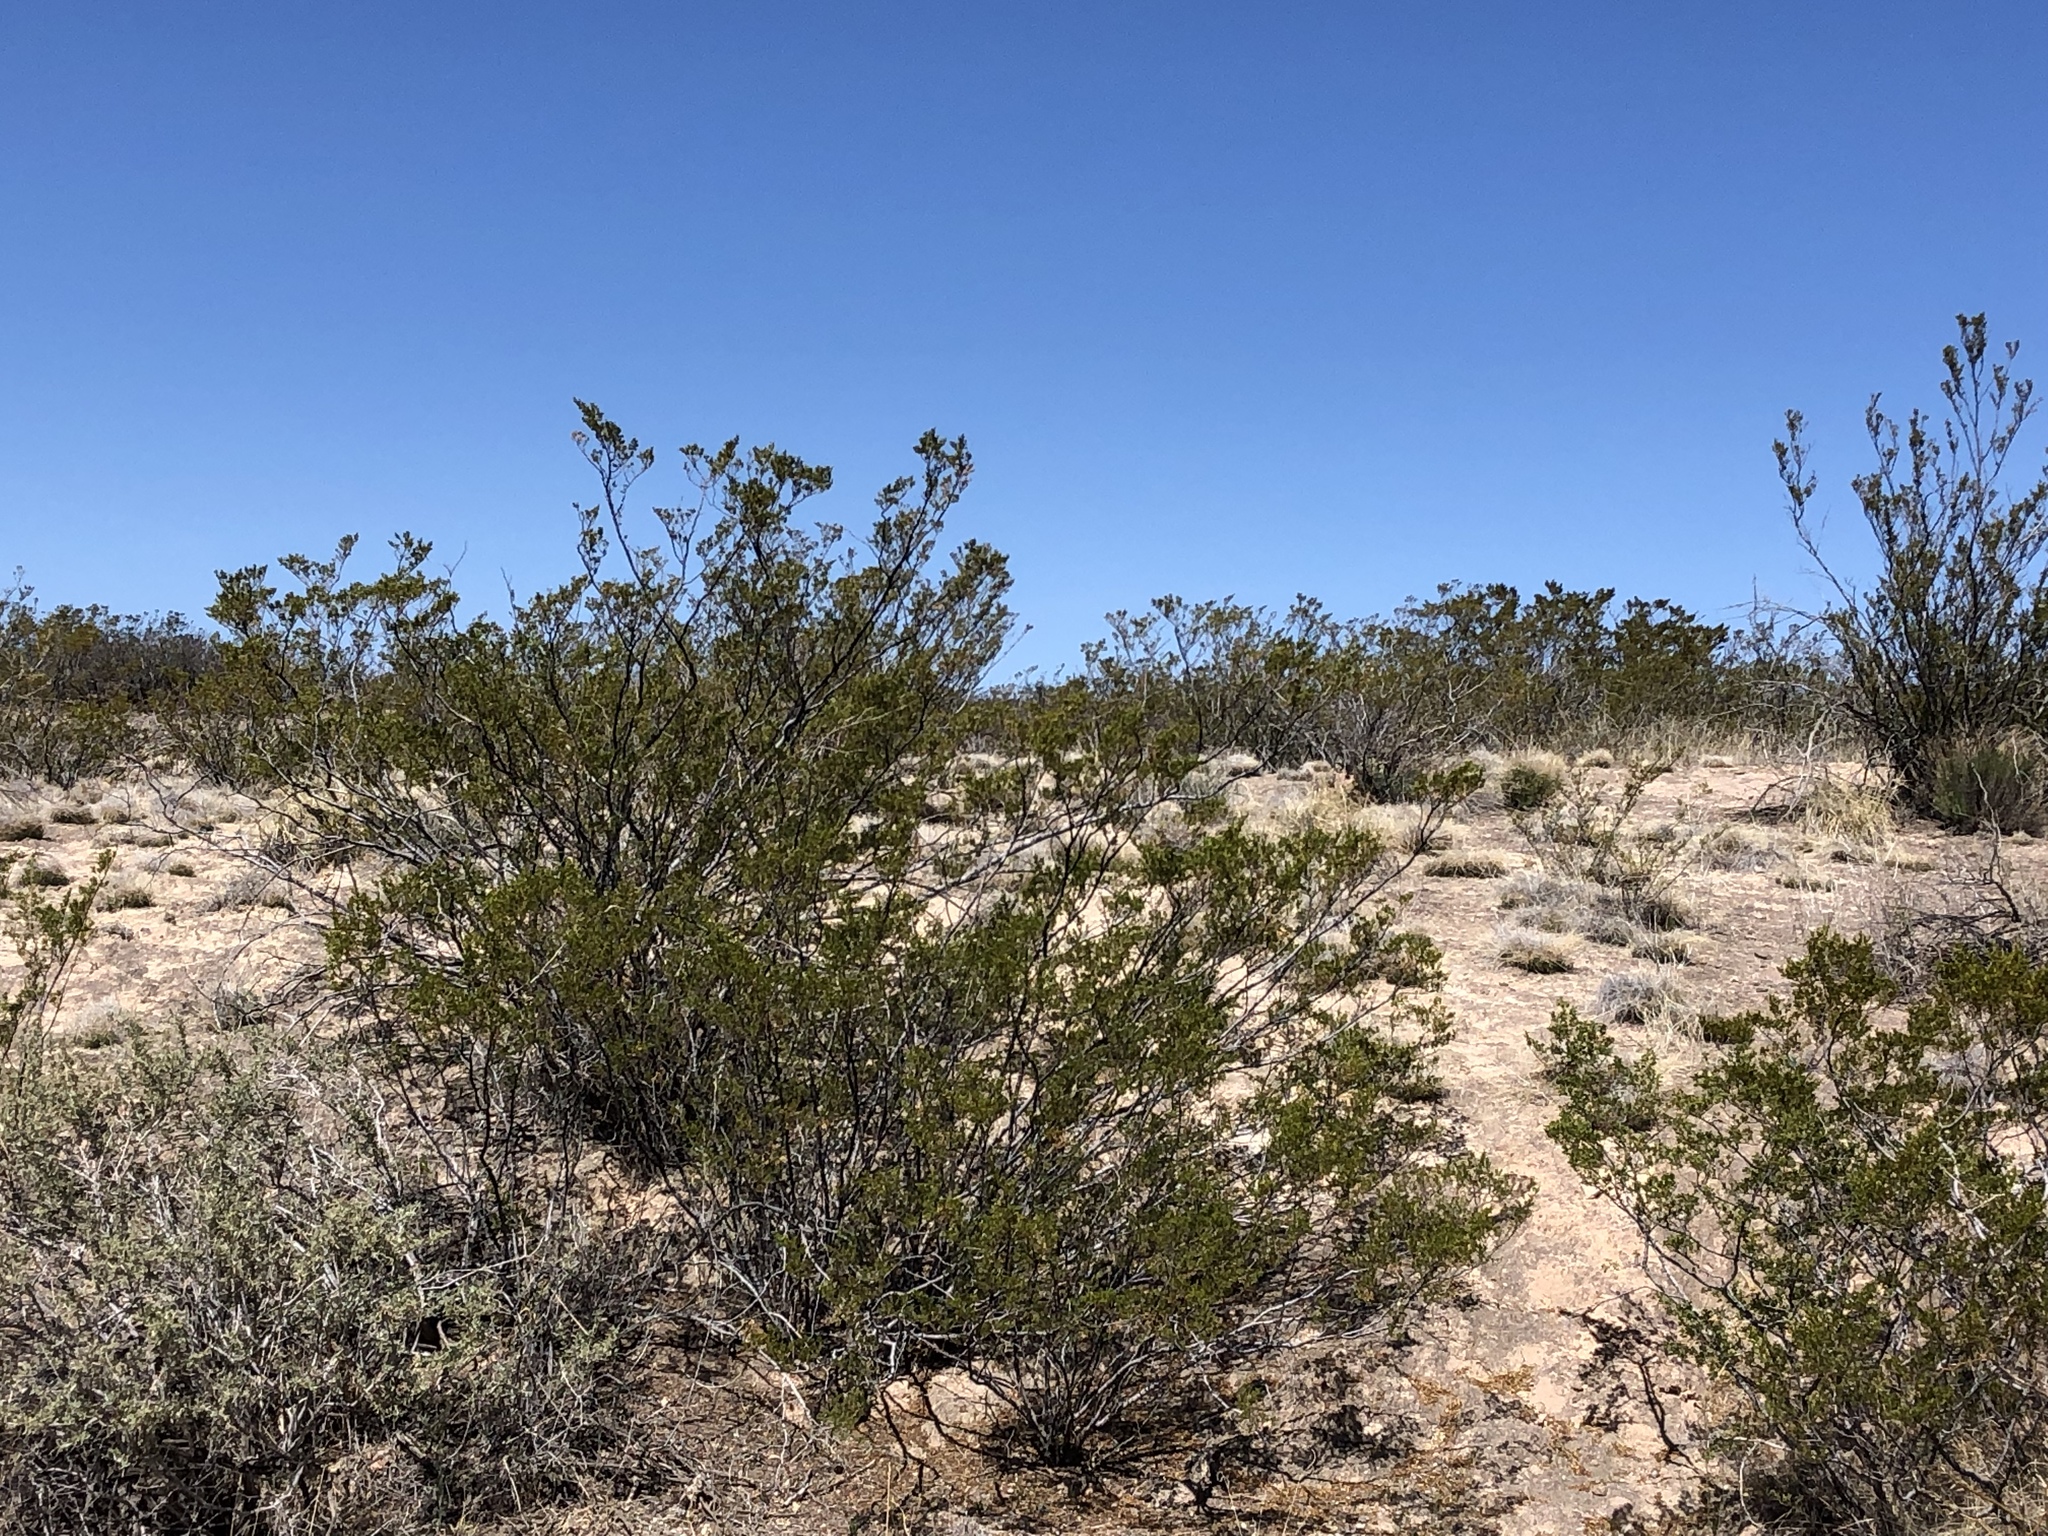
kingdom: Plantae
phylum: Tracheophyta
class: Magnoliopsida
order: Zygophyllales
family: Zygophyllaceae
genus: Larrea
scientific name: Larrea tridentata
